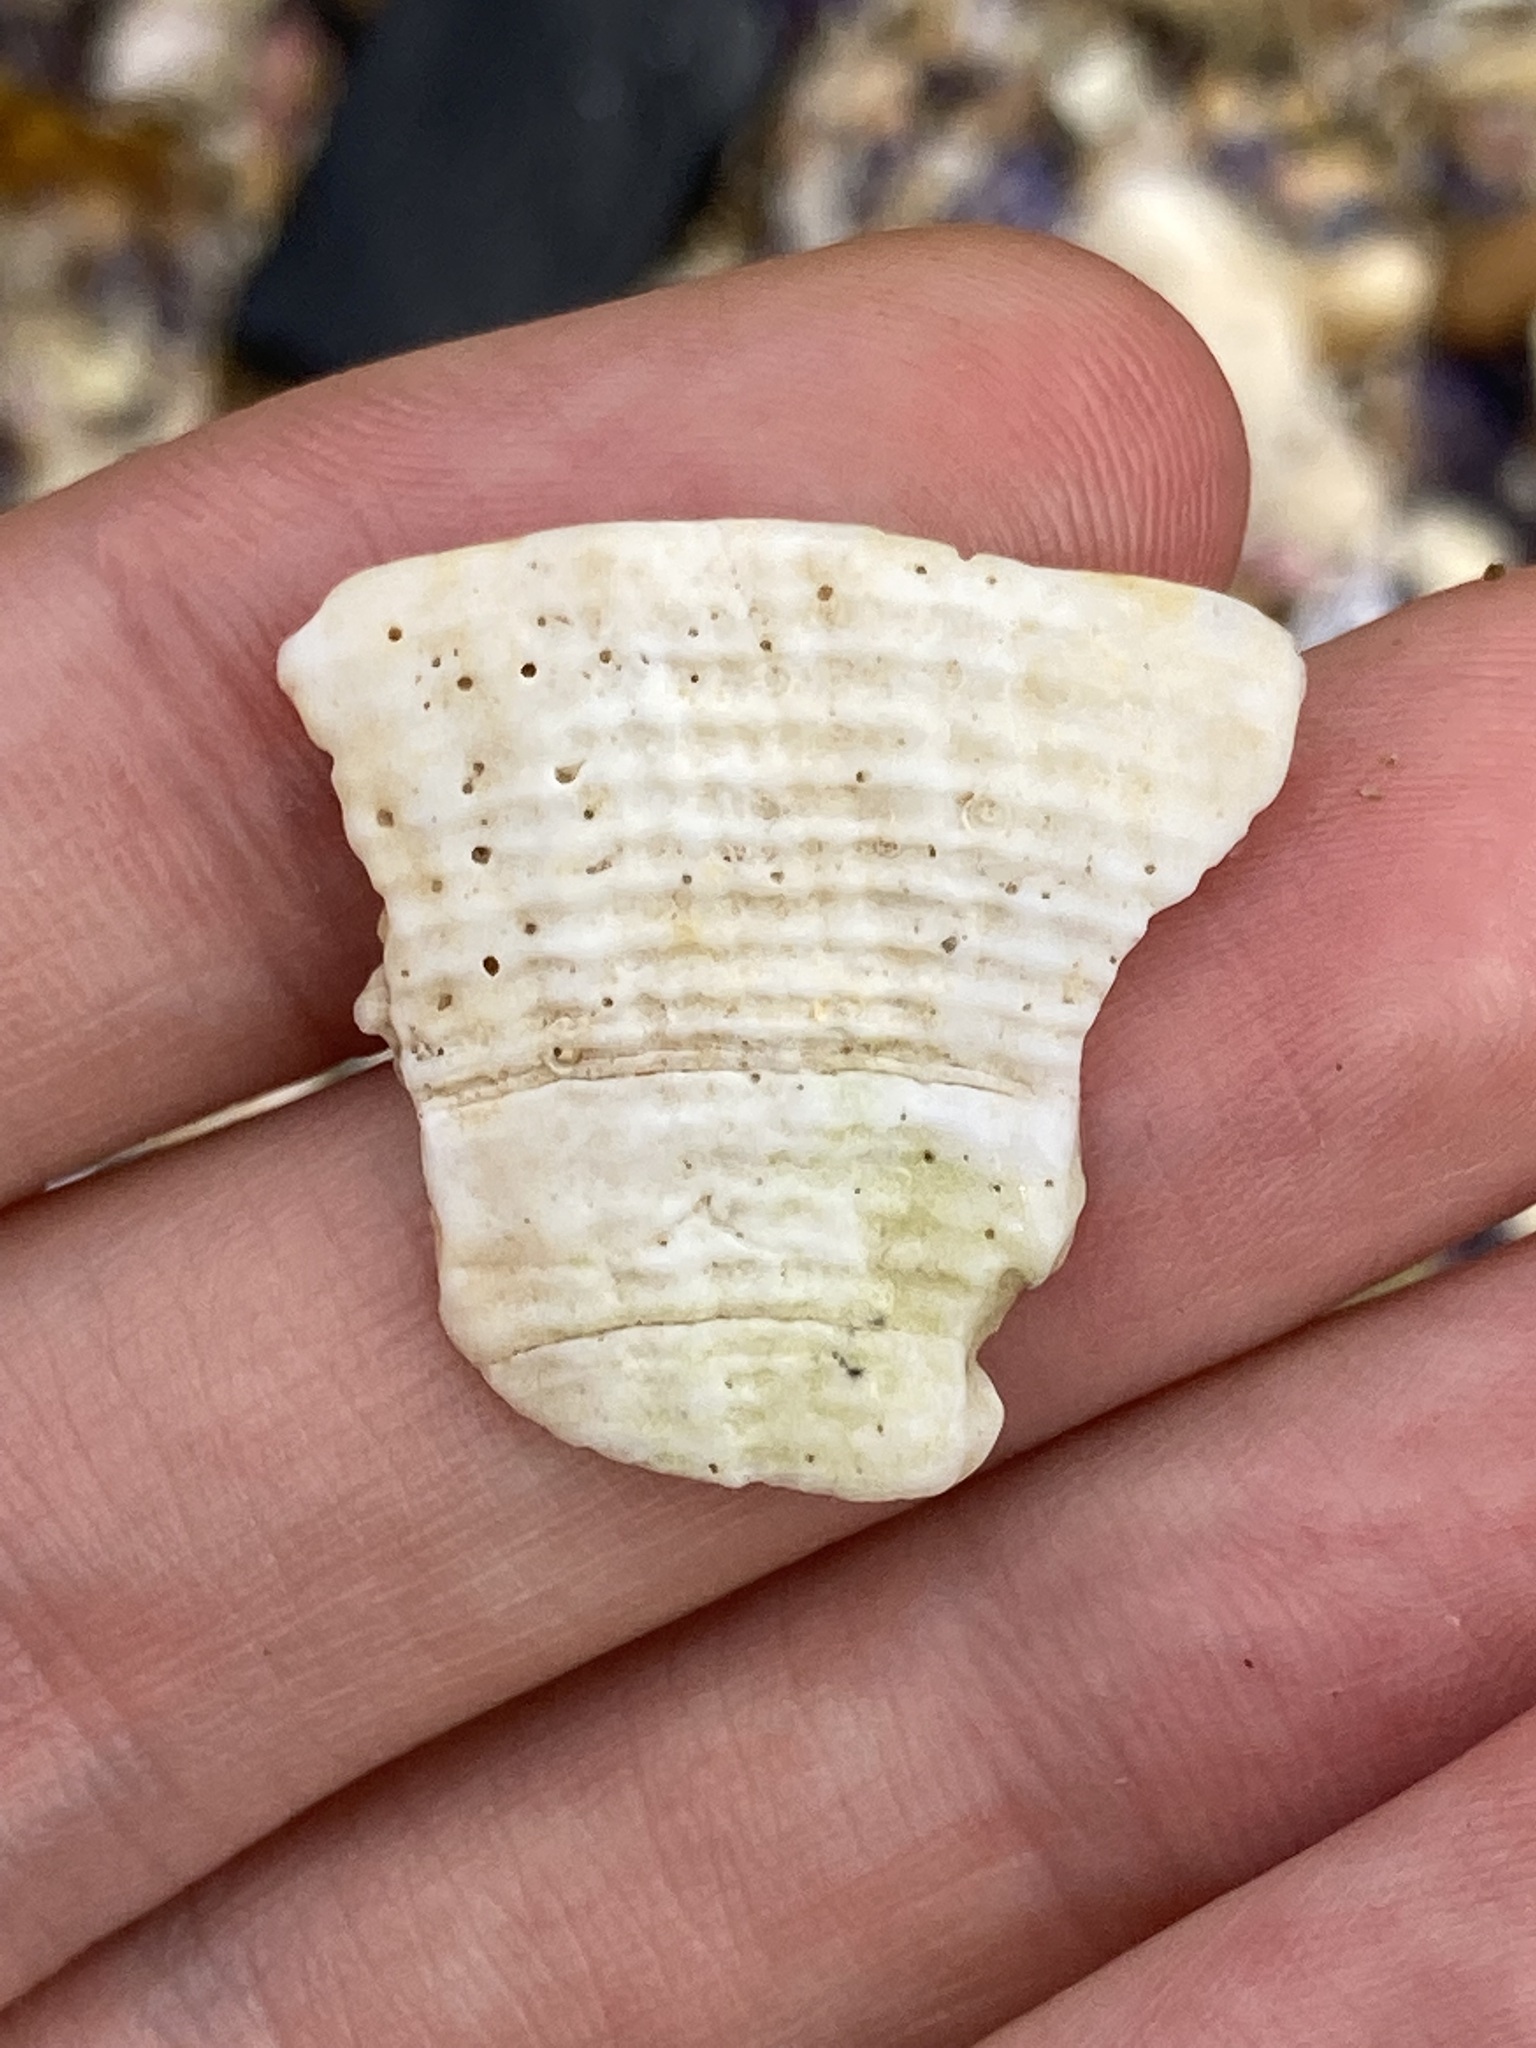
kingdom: Animalia
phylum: Mollusca
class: Bivalvia
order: Lucinida
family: Lucinidae
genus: Codakia
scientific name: Codakia rugifera
